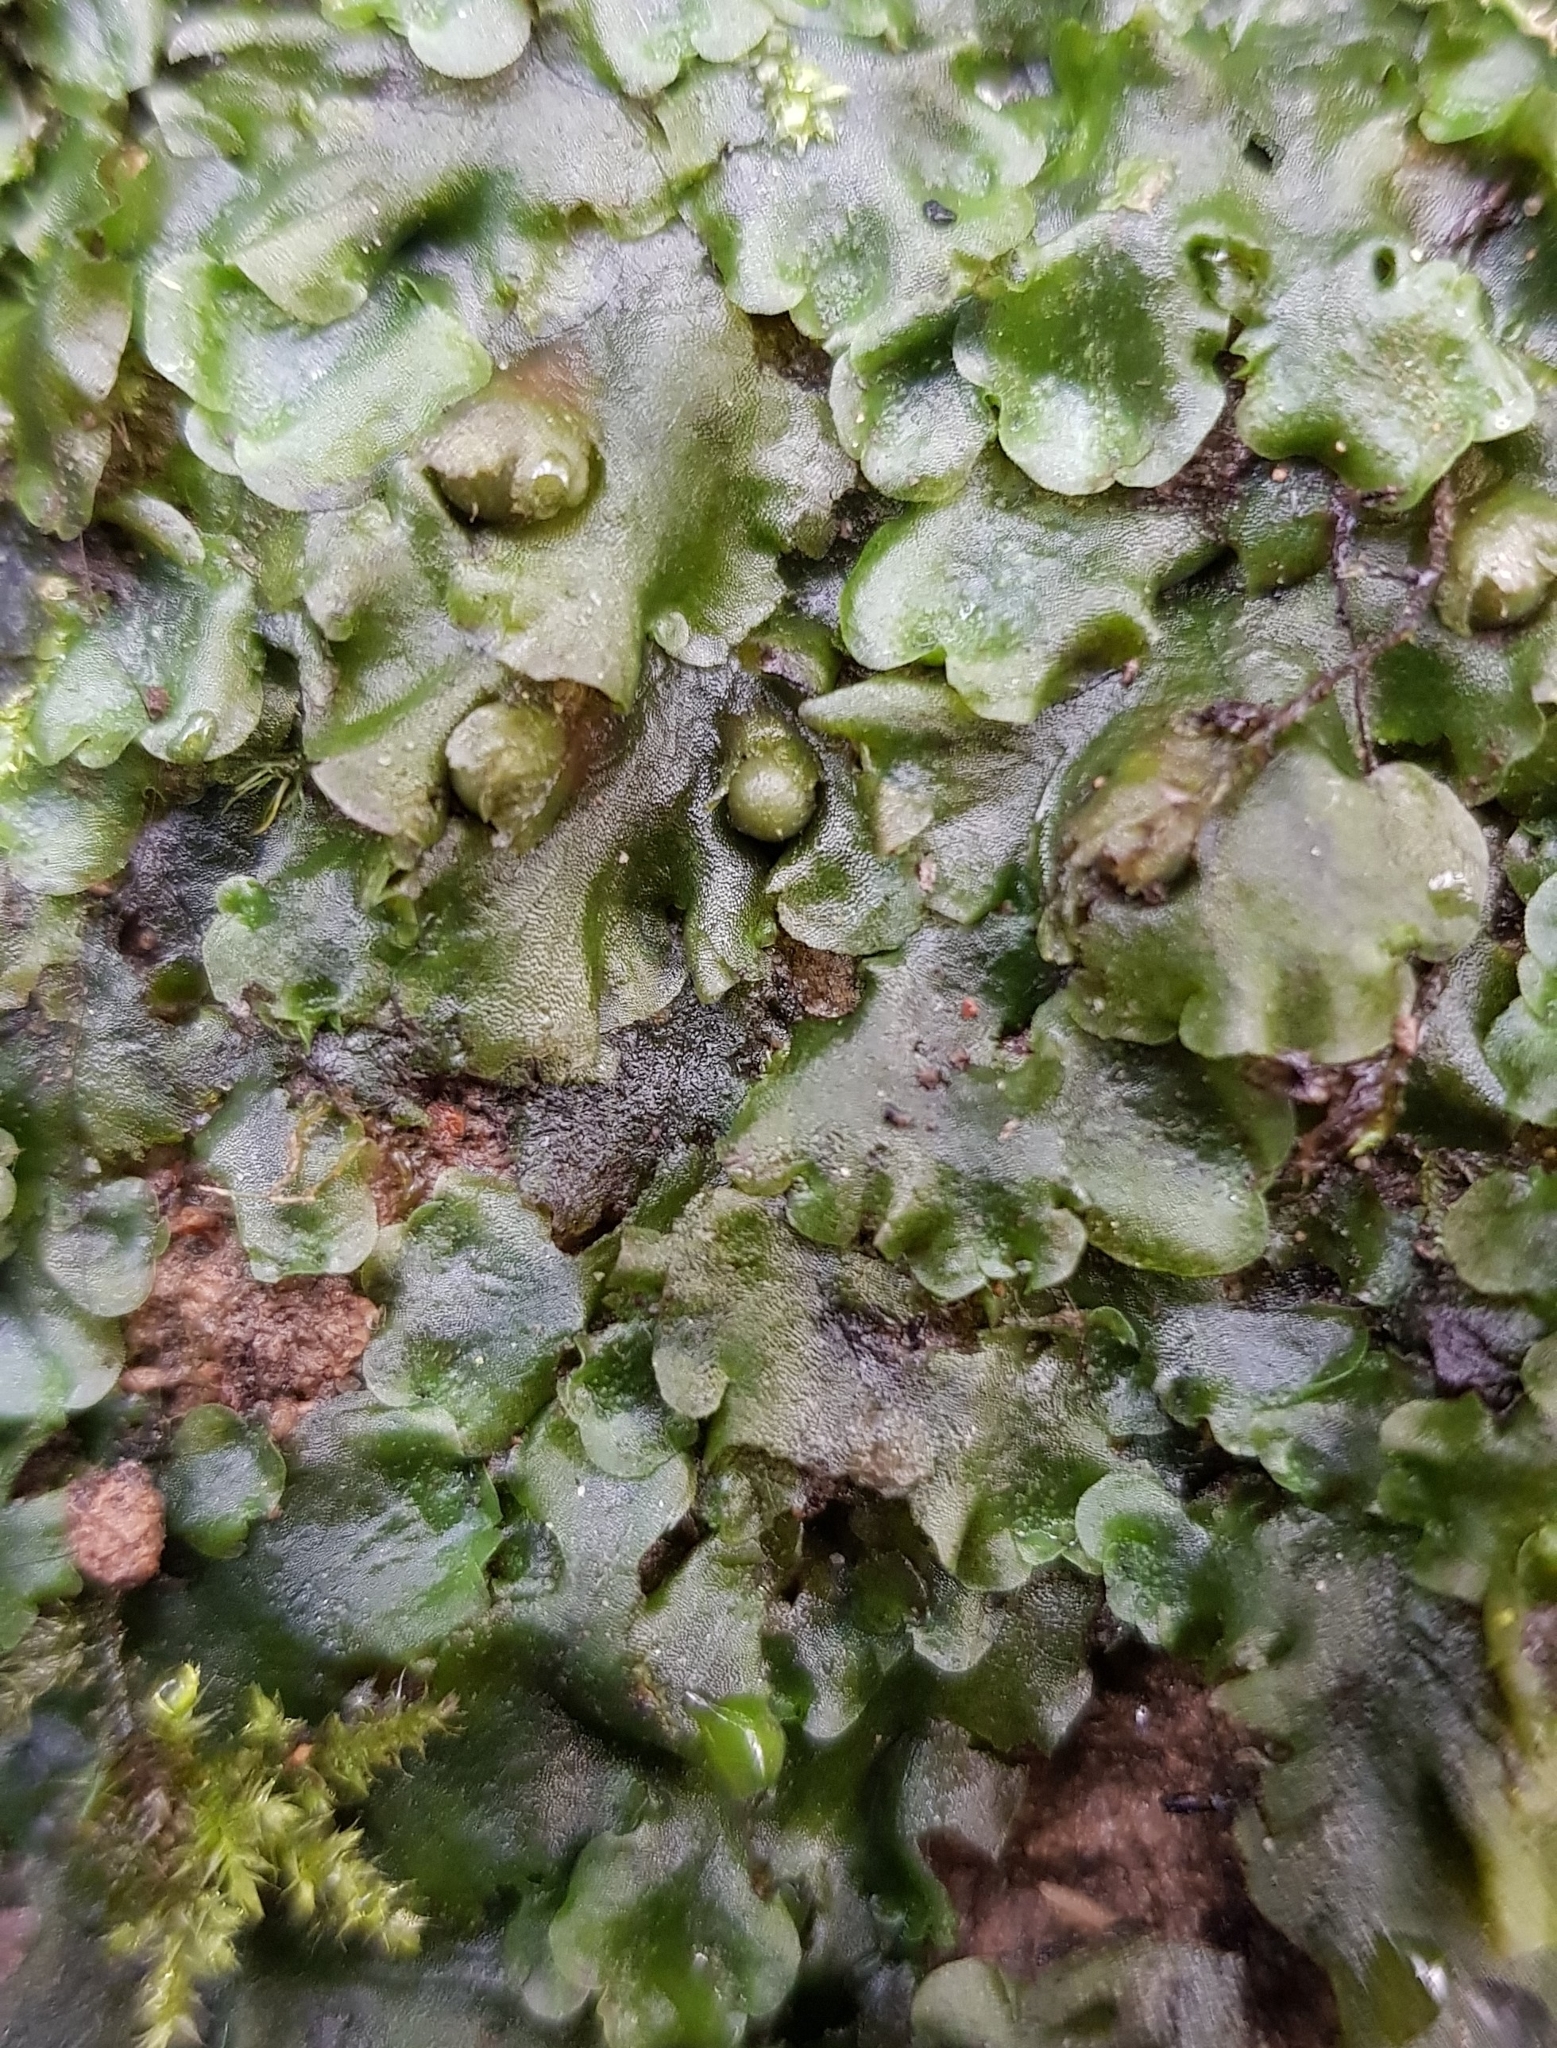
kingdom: Plantae
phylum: Marchantiophyta
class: Jungermanniopsida
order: Pelliales
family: Pelliaceae
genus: Pellia
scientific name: Pellia epiphylla
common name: Common pellia
